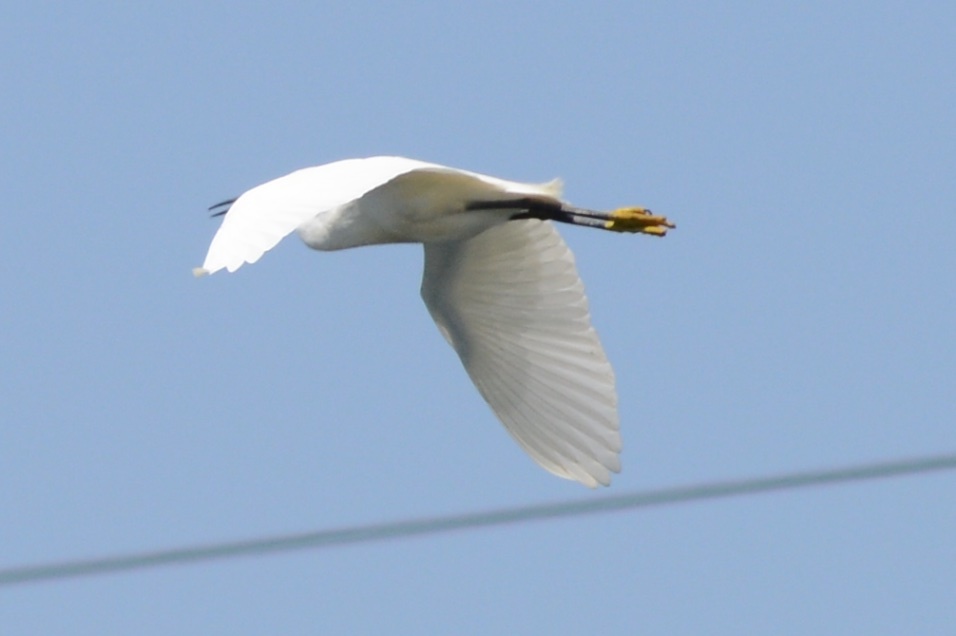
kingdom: Animalia
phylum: Chordata
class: Aves
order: Pelecaniformes
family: Ardeidae
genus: Egretta
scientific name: Egretta thula
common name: Snowy egret
